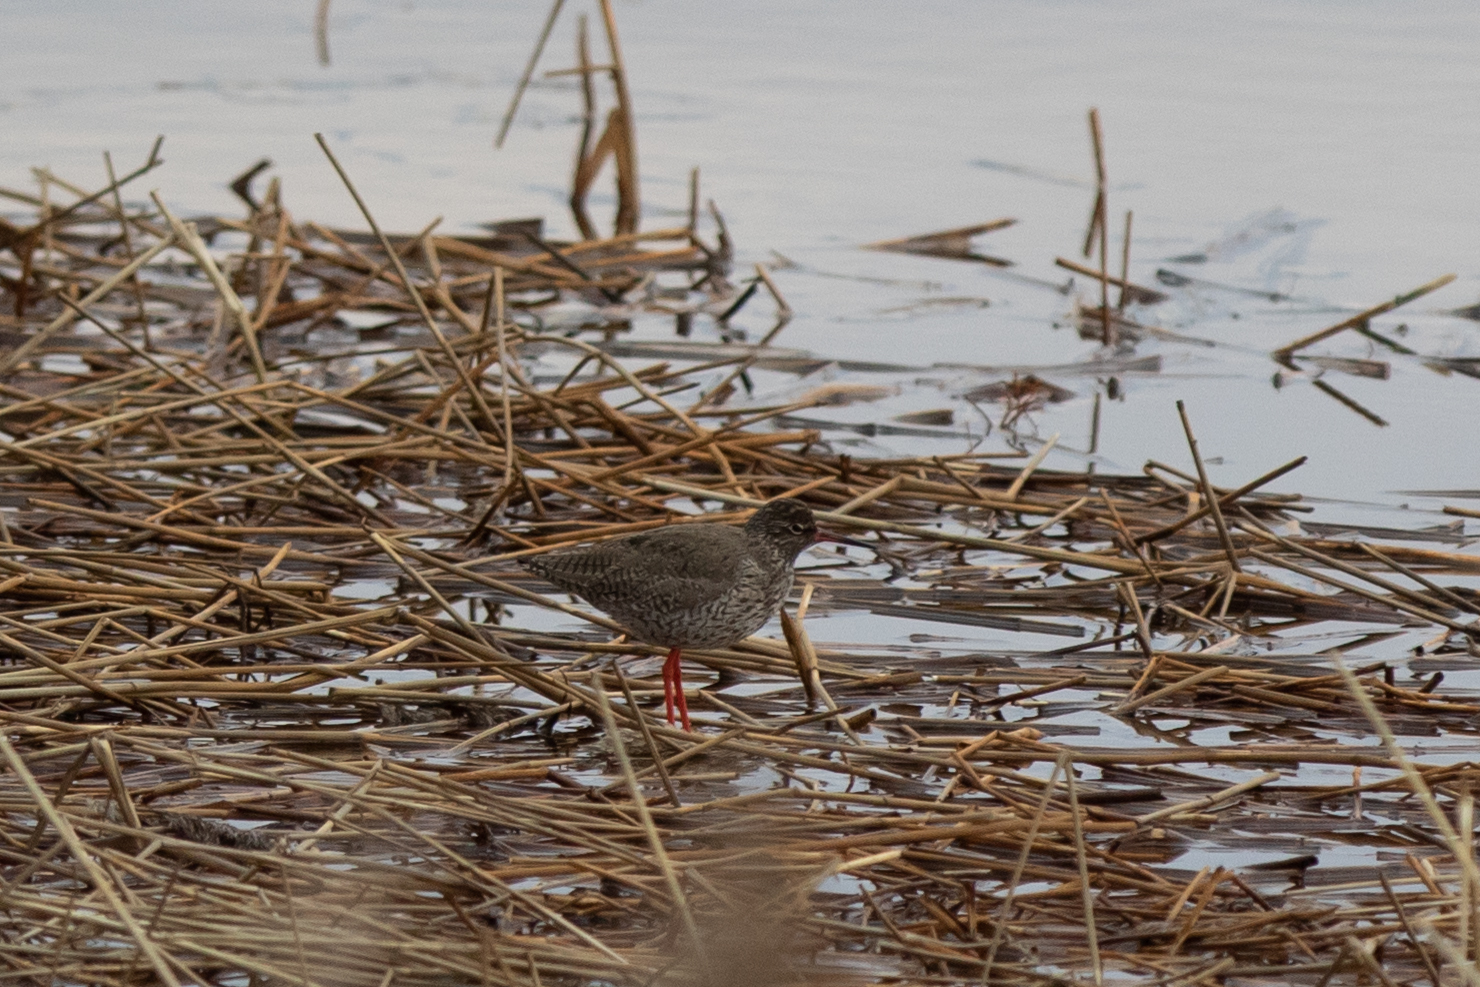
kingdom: Animalia
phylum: Chordata
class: Aves
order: Charadriiformes
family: Scolopacidae
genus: Tringa
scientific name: Tringa totanus
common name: Common redshank
